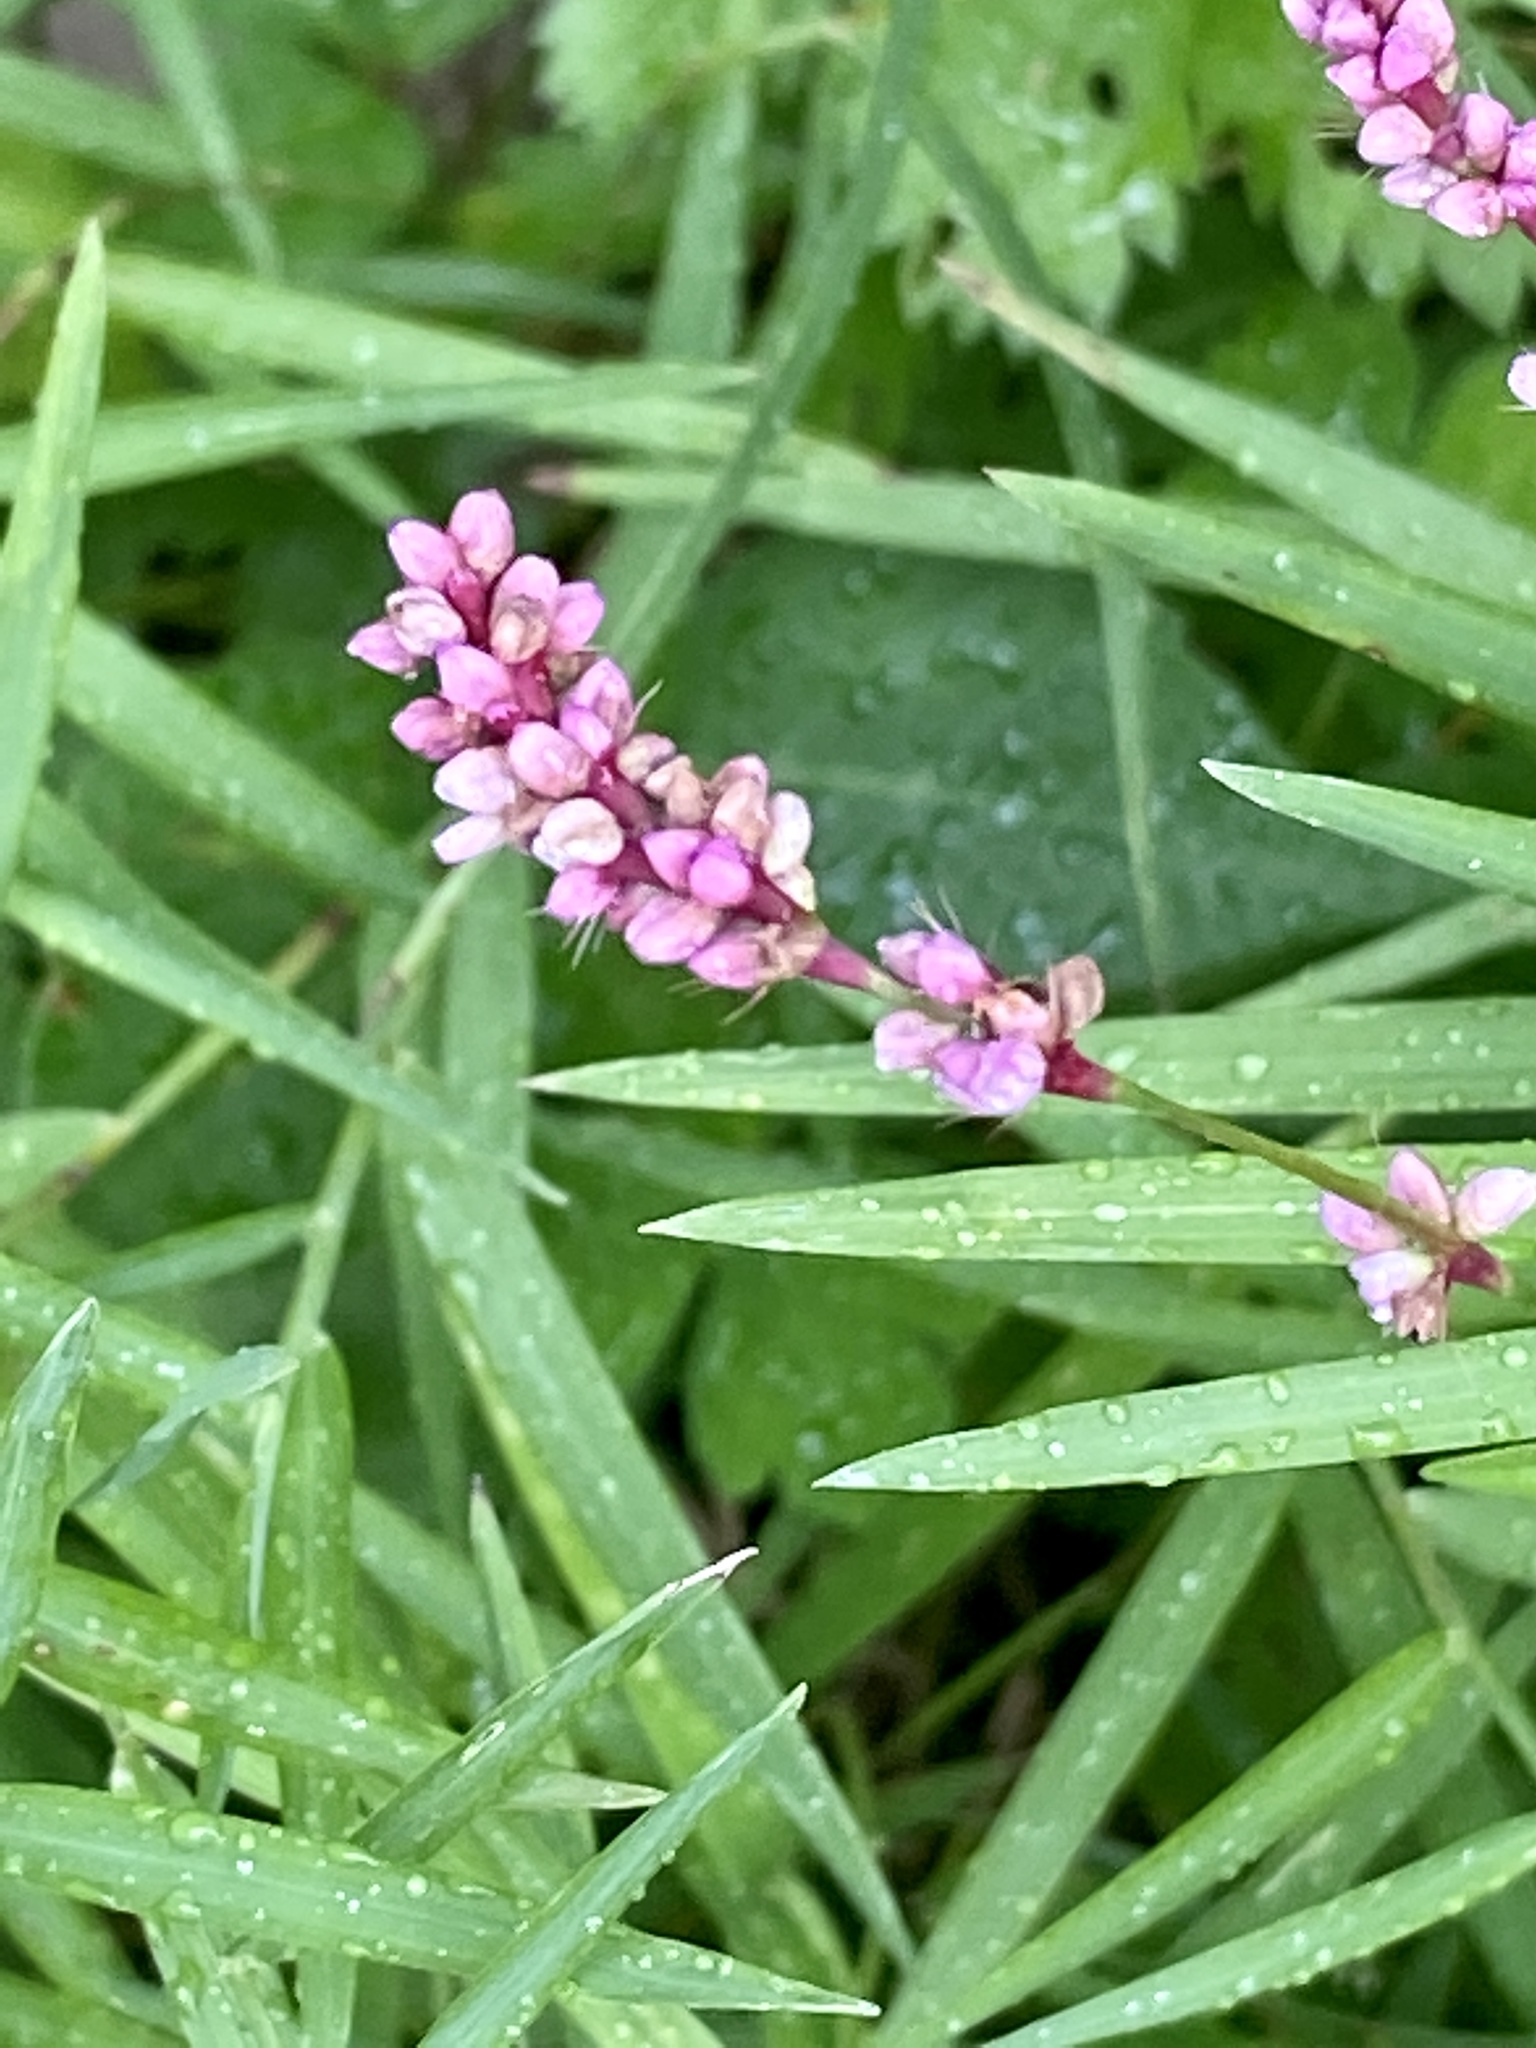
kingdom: Plantae
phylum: Tracheophyta
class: Magnoliopsida
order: Caryophyllales
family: Polygonaceae
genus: Persicaria
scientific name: Persicaria longiseta
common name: Bristly lady's-thumb
